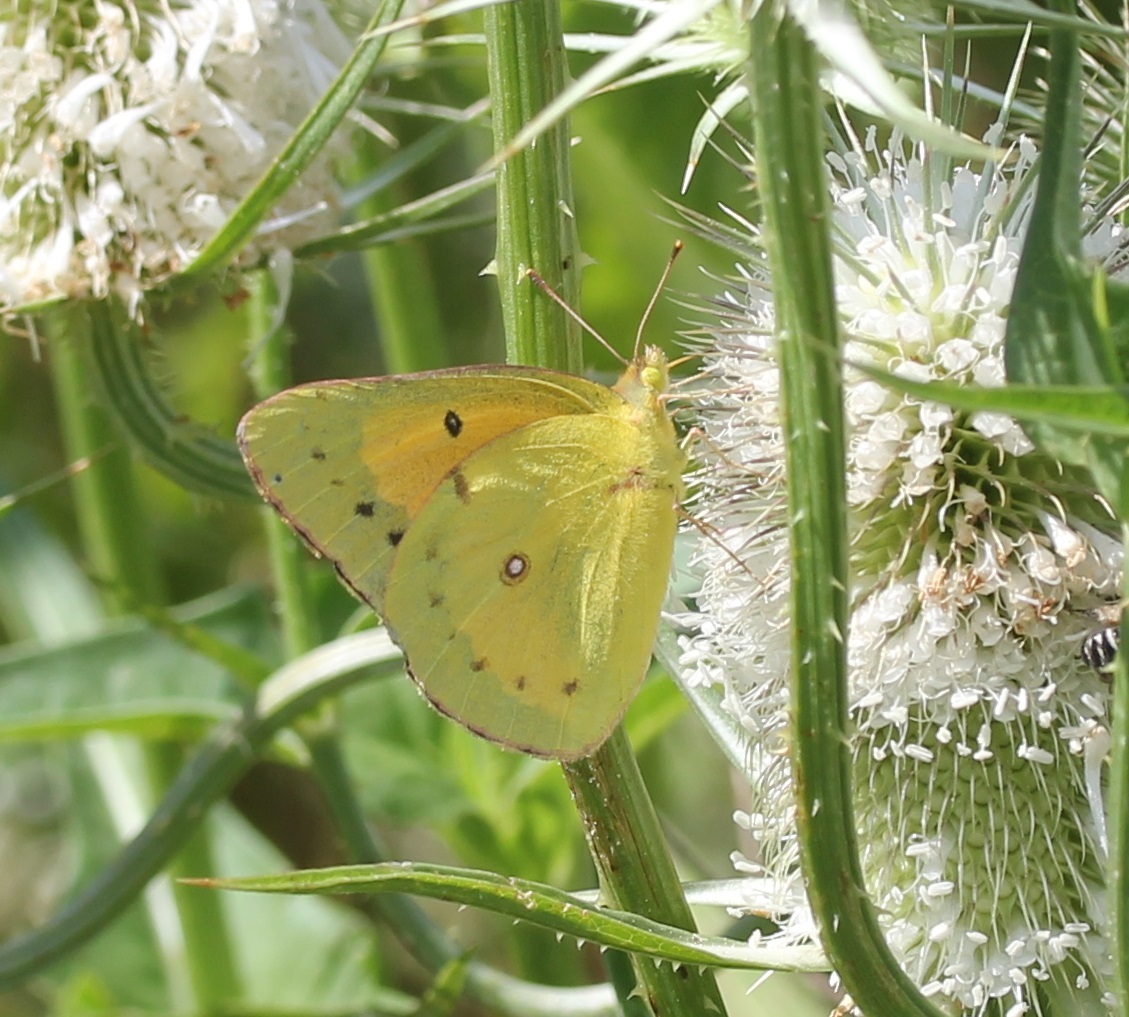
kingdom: Animalia
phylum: Arthropoda
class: Insecta
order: Lepidoptera
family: Pieridae
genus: Colias
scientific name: Colias eurytheme
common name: Alfalfa butterfly
